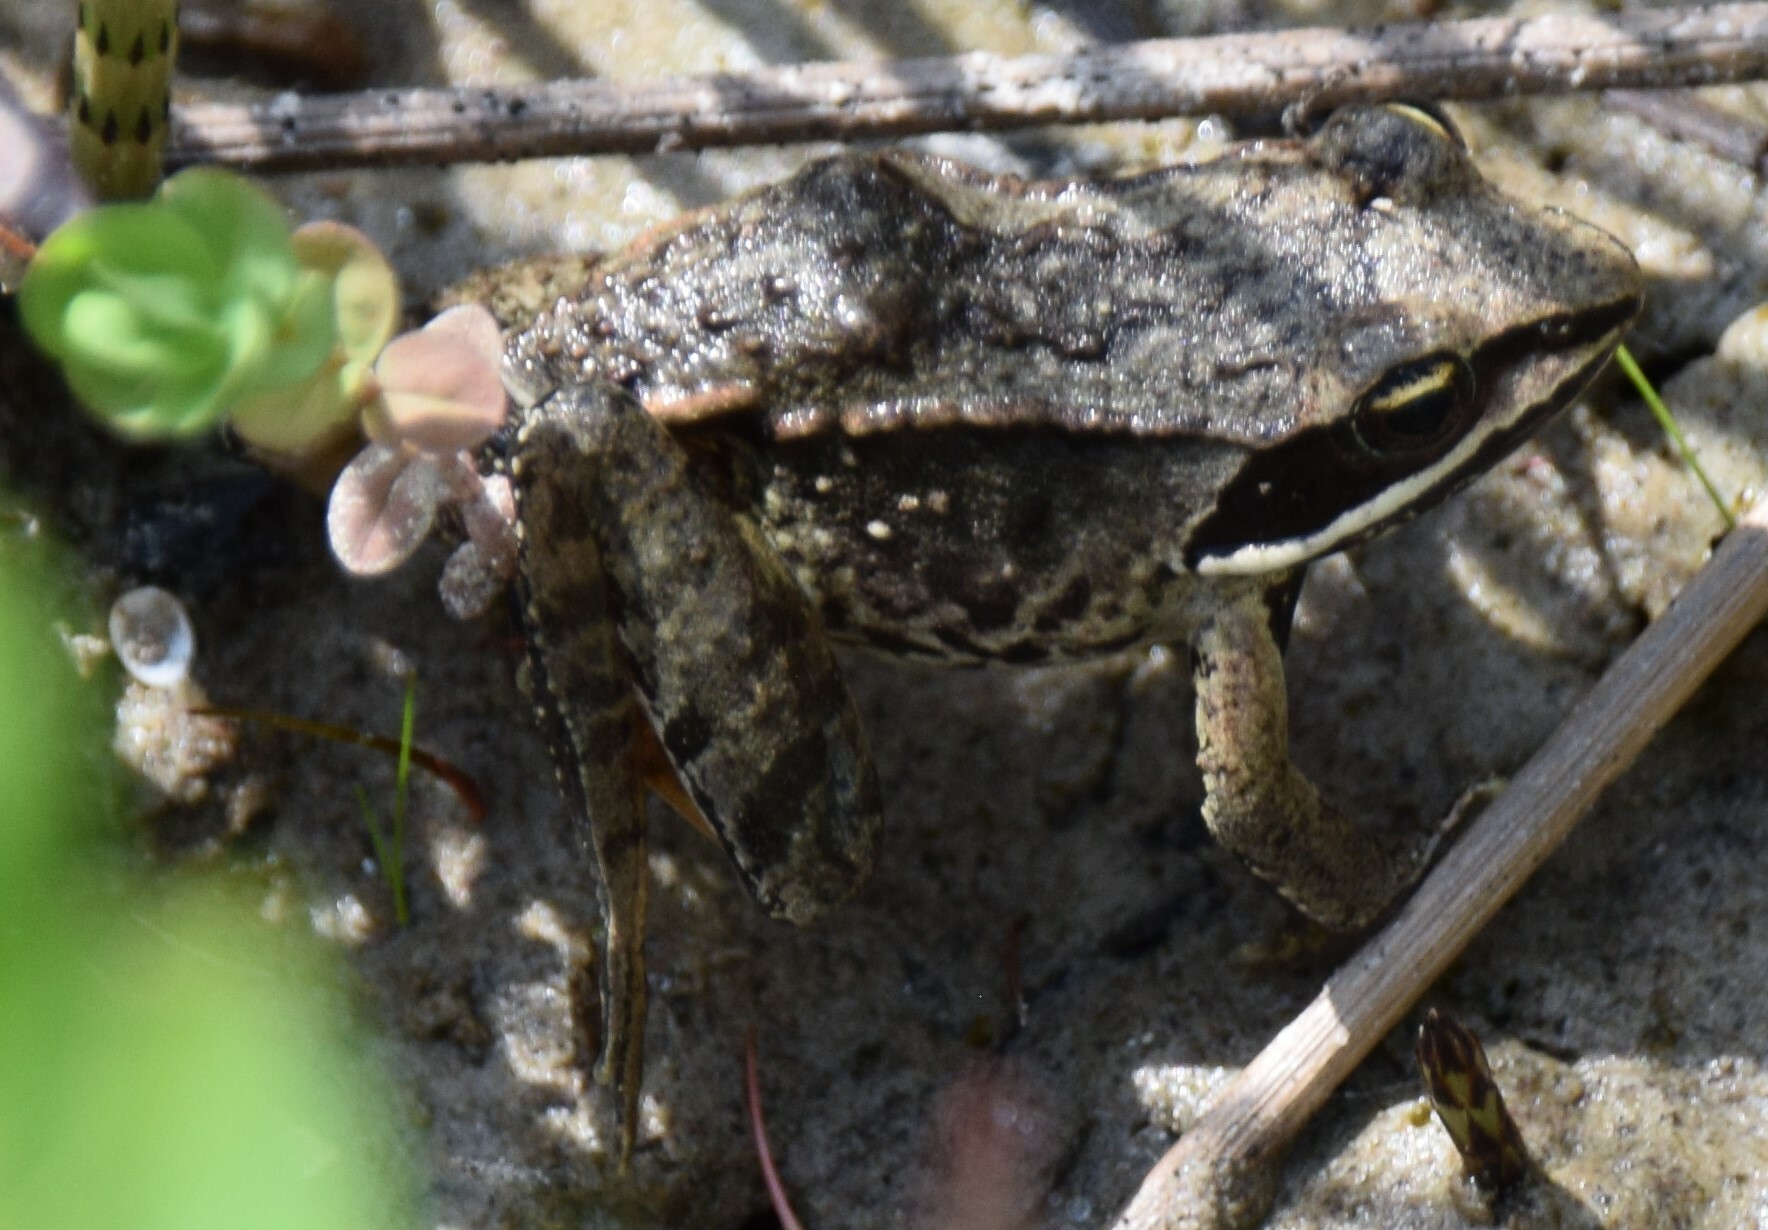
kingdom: Animalia
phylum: Chordata
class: Amphibia
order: Anura
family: Ranidae
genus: Lithobates
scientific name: Lithobates sylvaticus
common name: Wood frog
